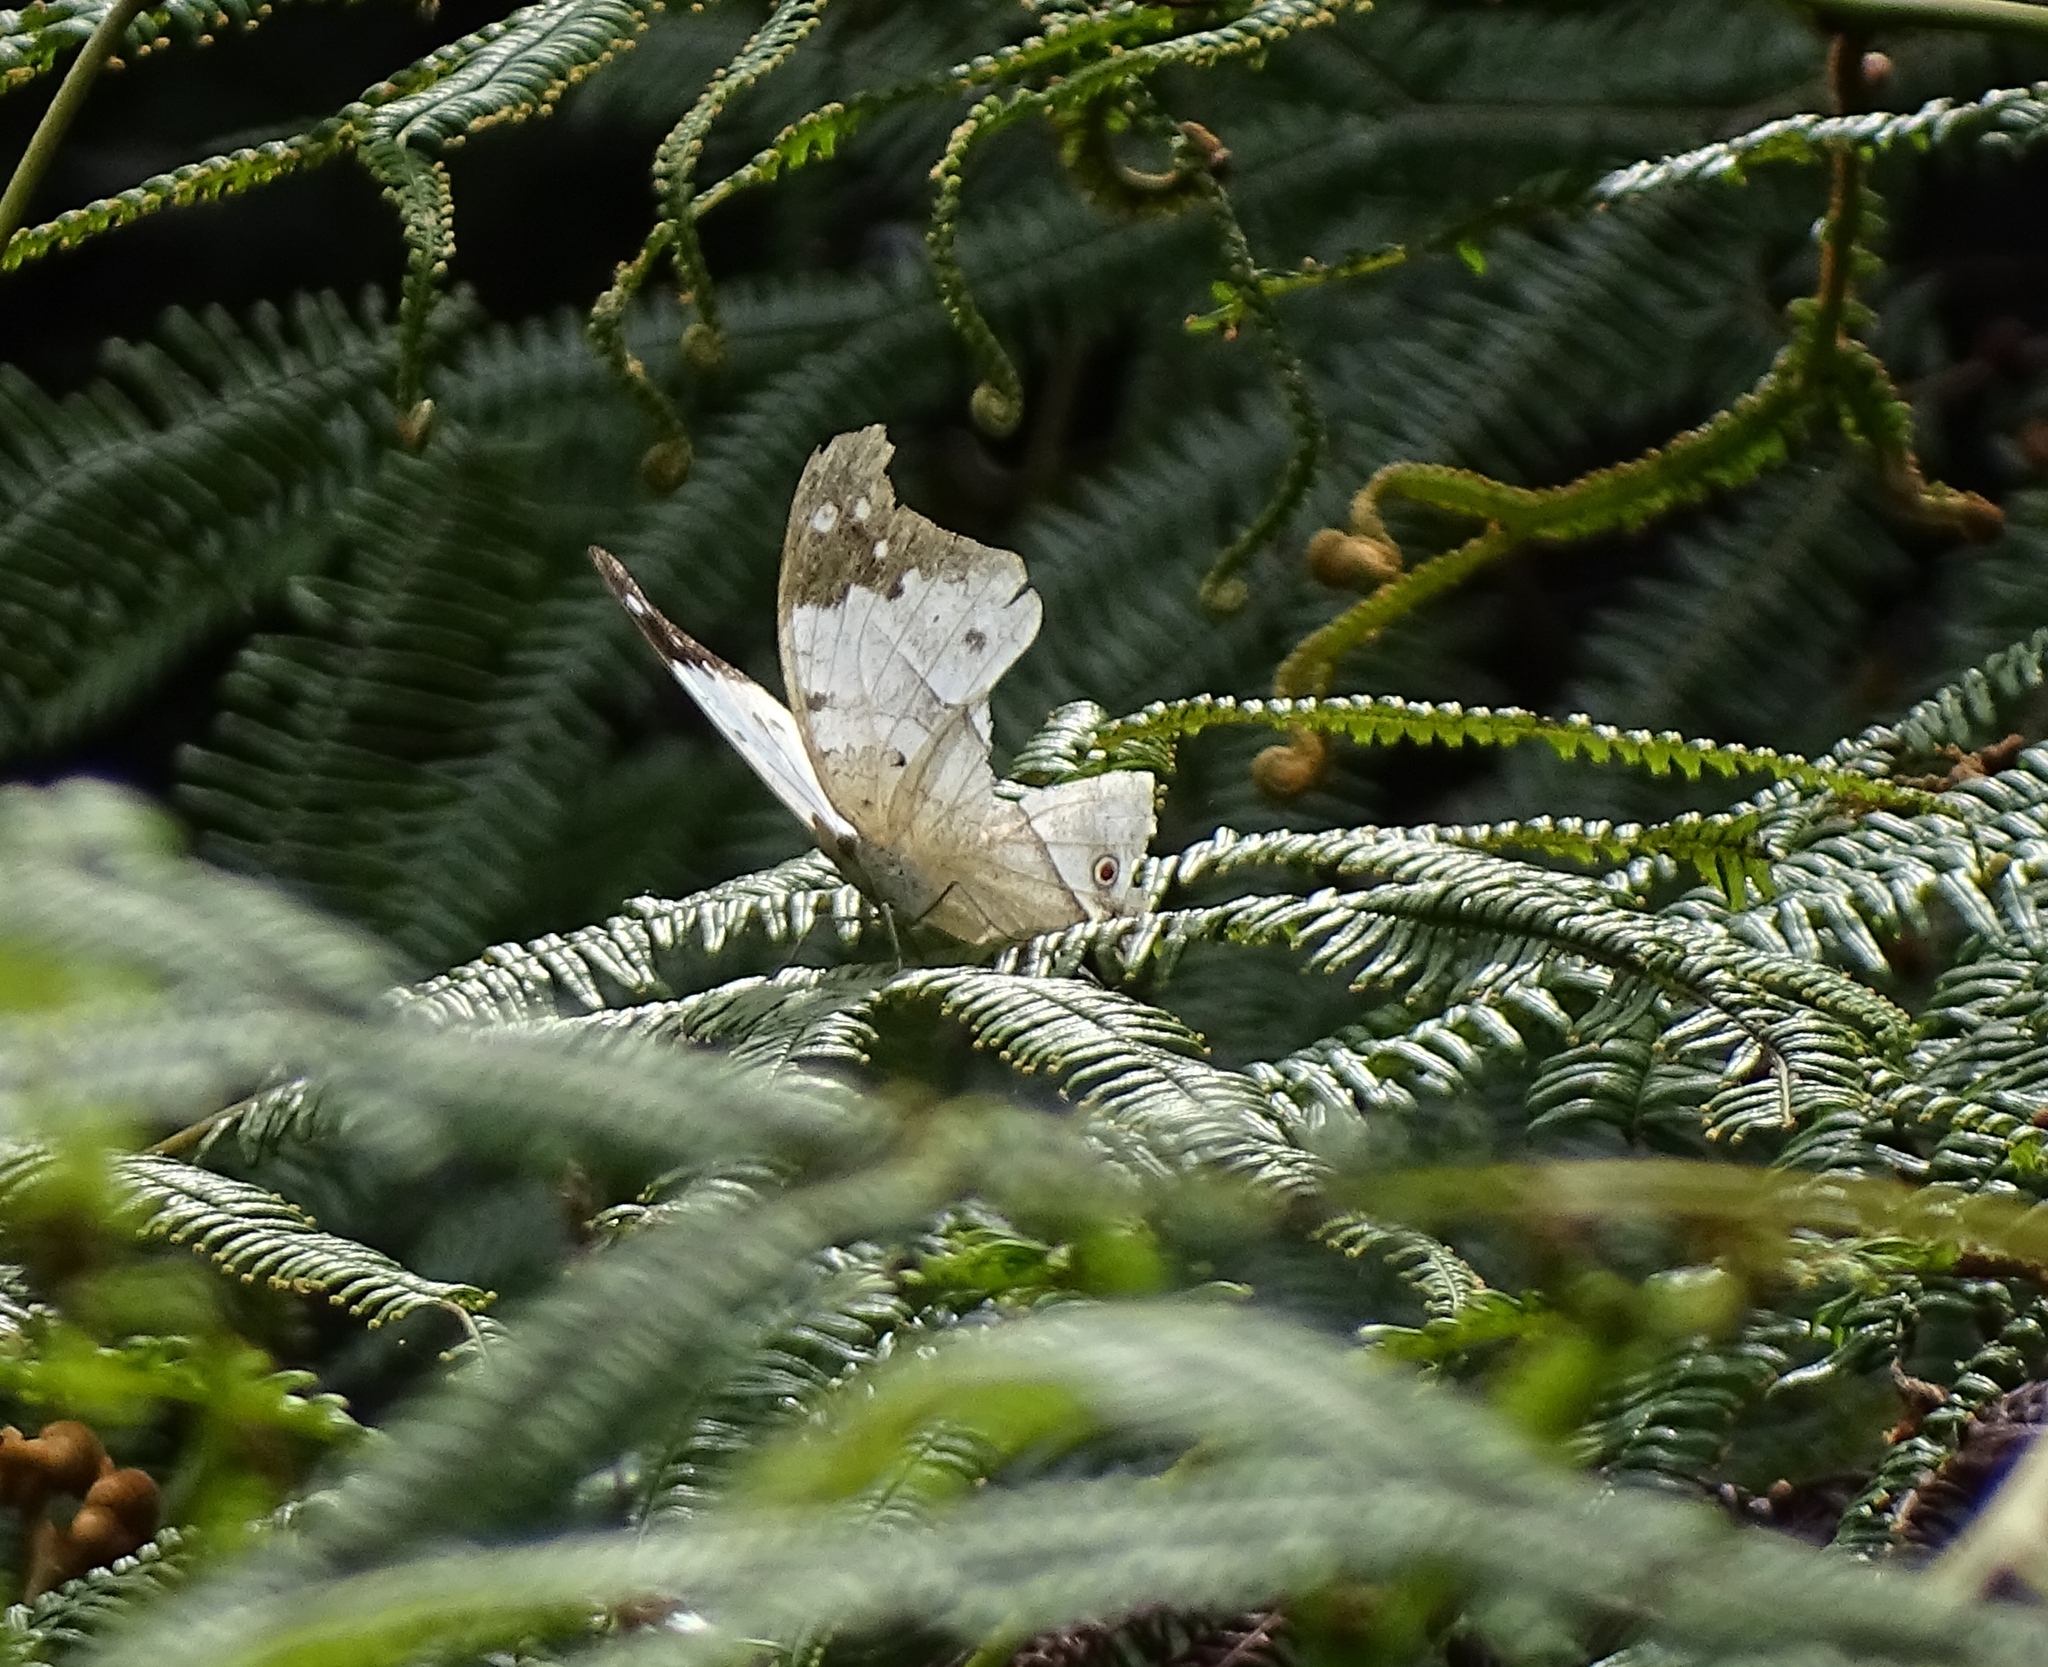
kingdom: Animalia
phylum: Arthropoda
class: Insecta
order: Lepidoptera
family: Nymphalidae
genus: Salamis
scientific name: Salamis Protogoniomorpha duprei
